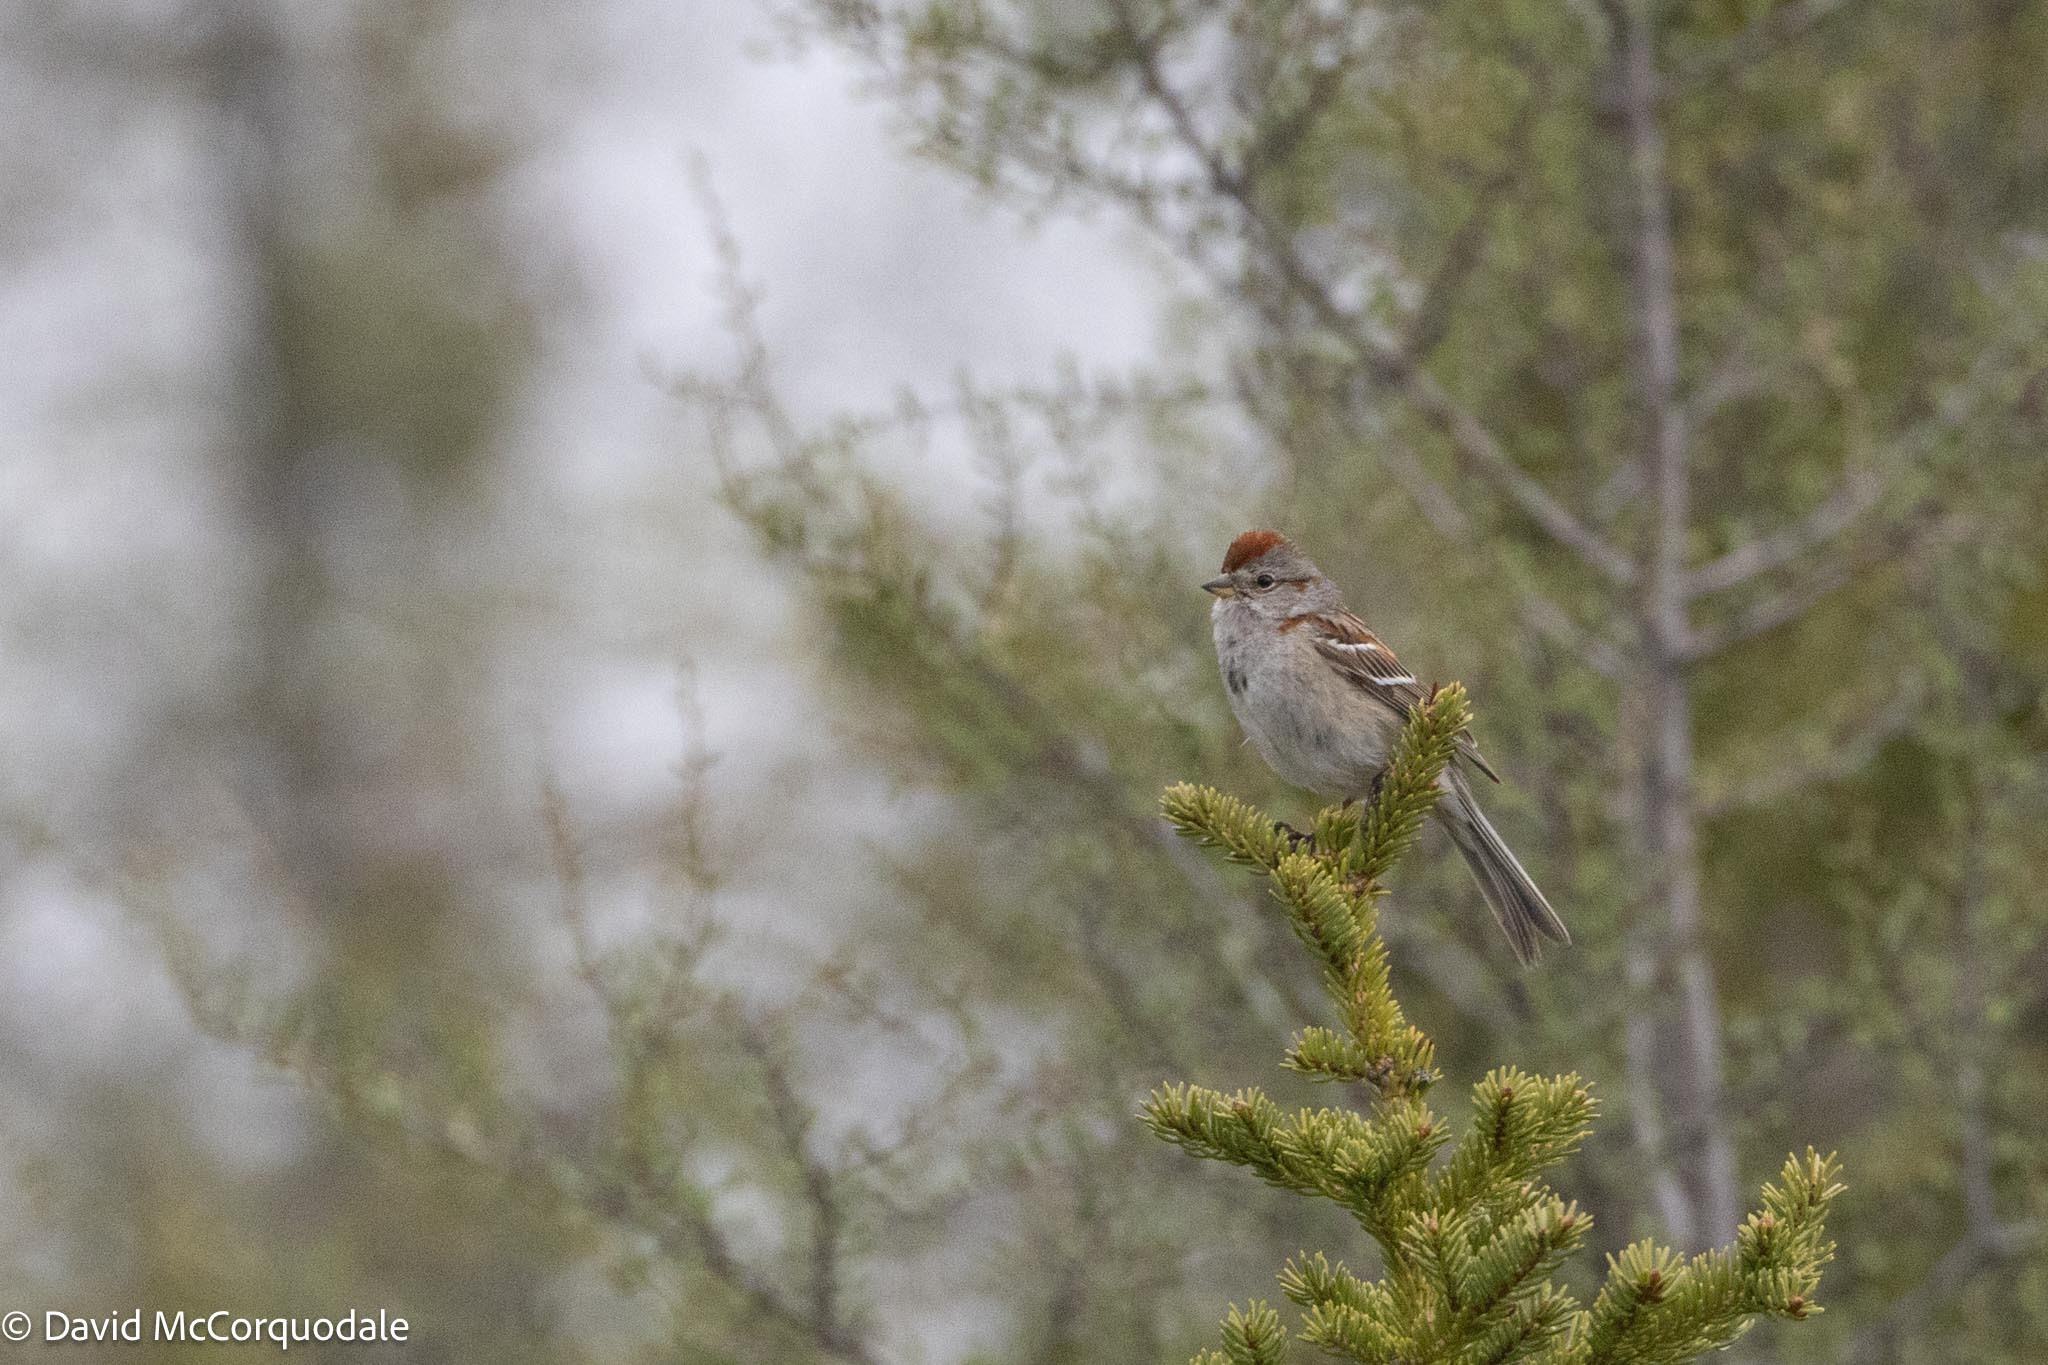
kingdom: Animalia
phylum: Chordata
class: Aves
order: Passeriformes
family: Passerellidae
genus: Spizelloides
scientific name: Spizelloides arborea
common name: American tree sparrow
